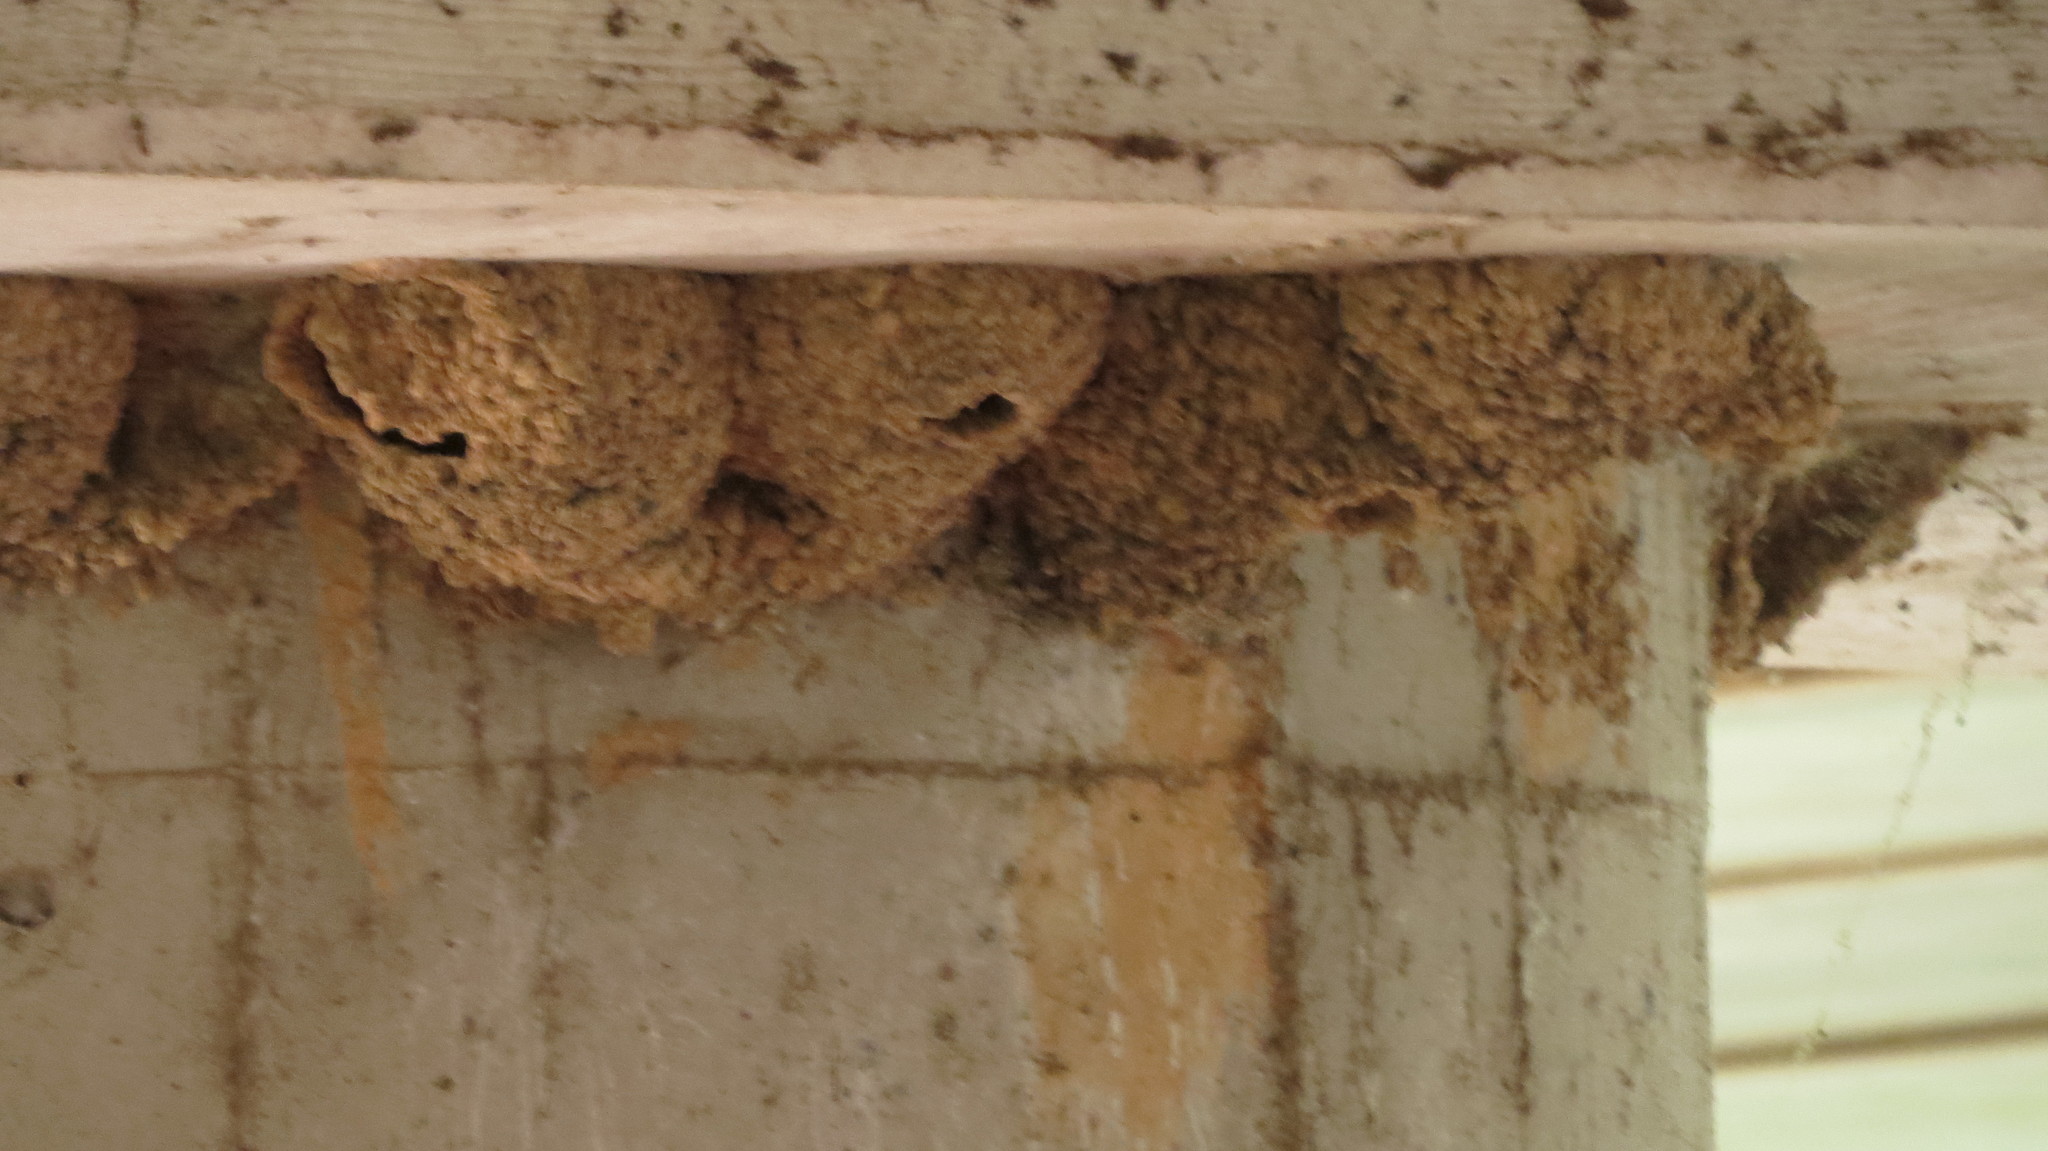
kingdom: Animalia
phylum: Chordata
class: Aves
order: Passeriformes
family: Hirundinidae
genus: Petrochelidon
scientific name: Petrochelidon pyrrhonota
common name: American cliff swallow
